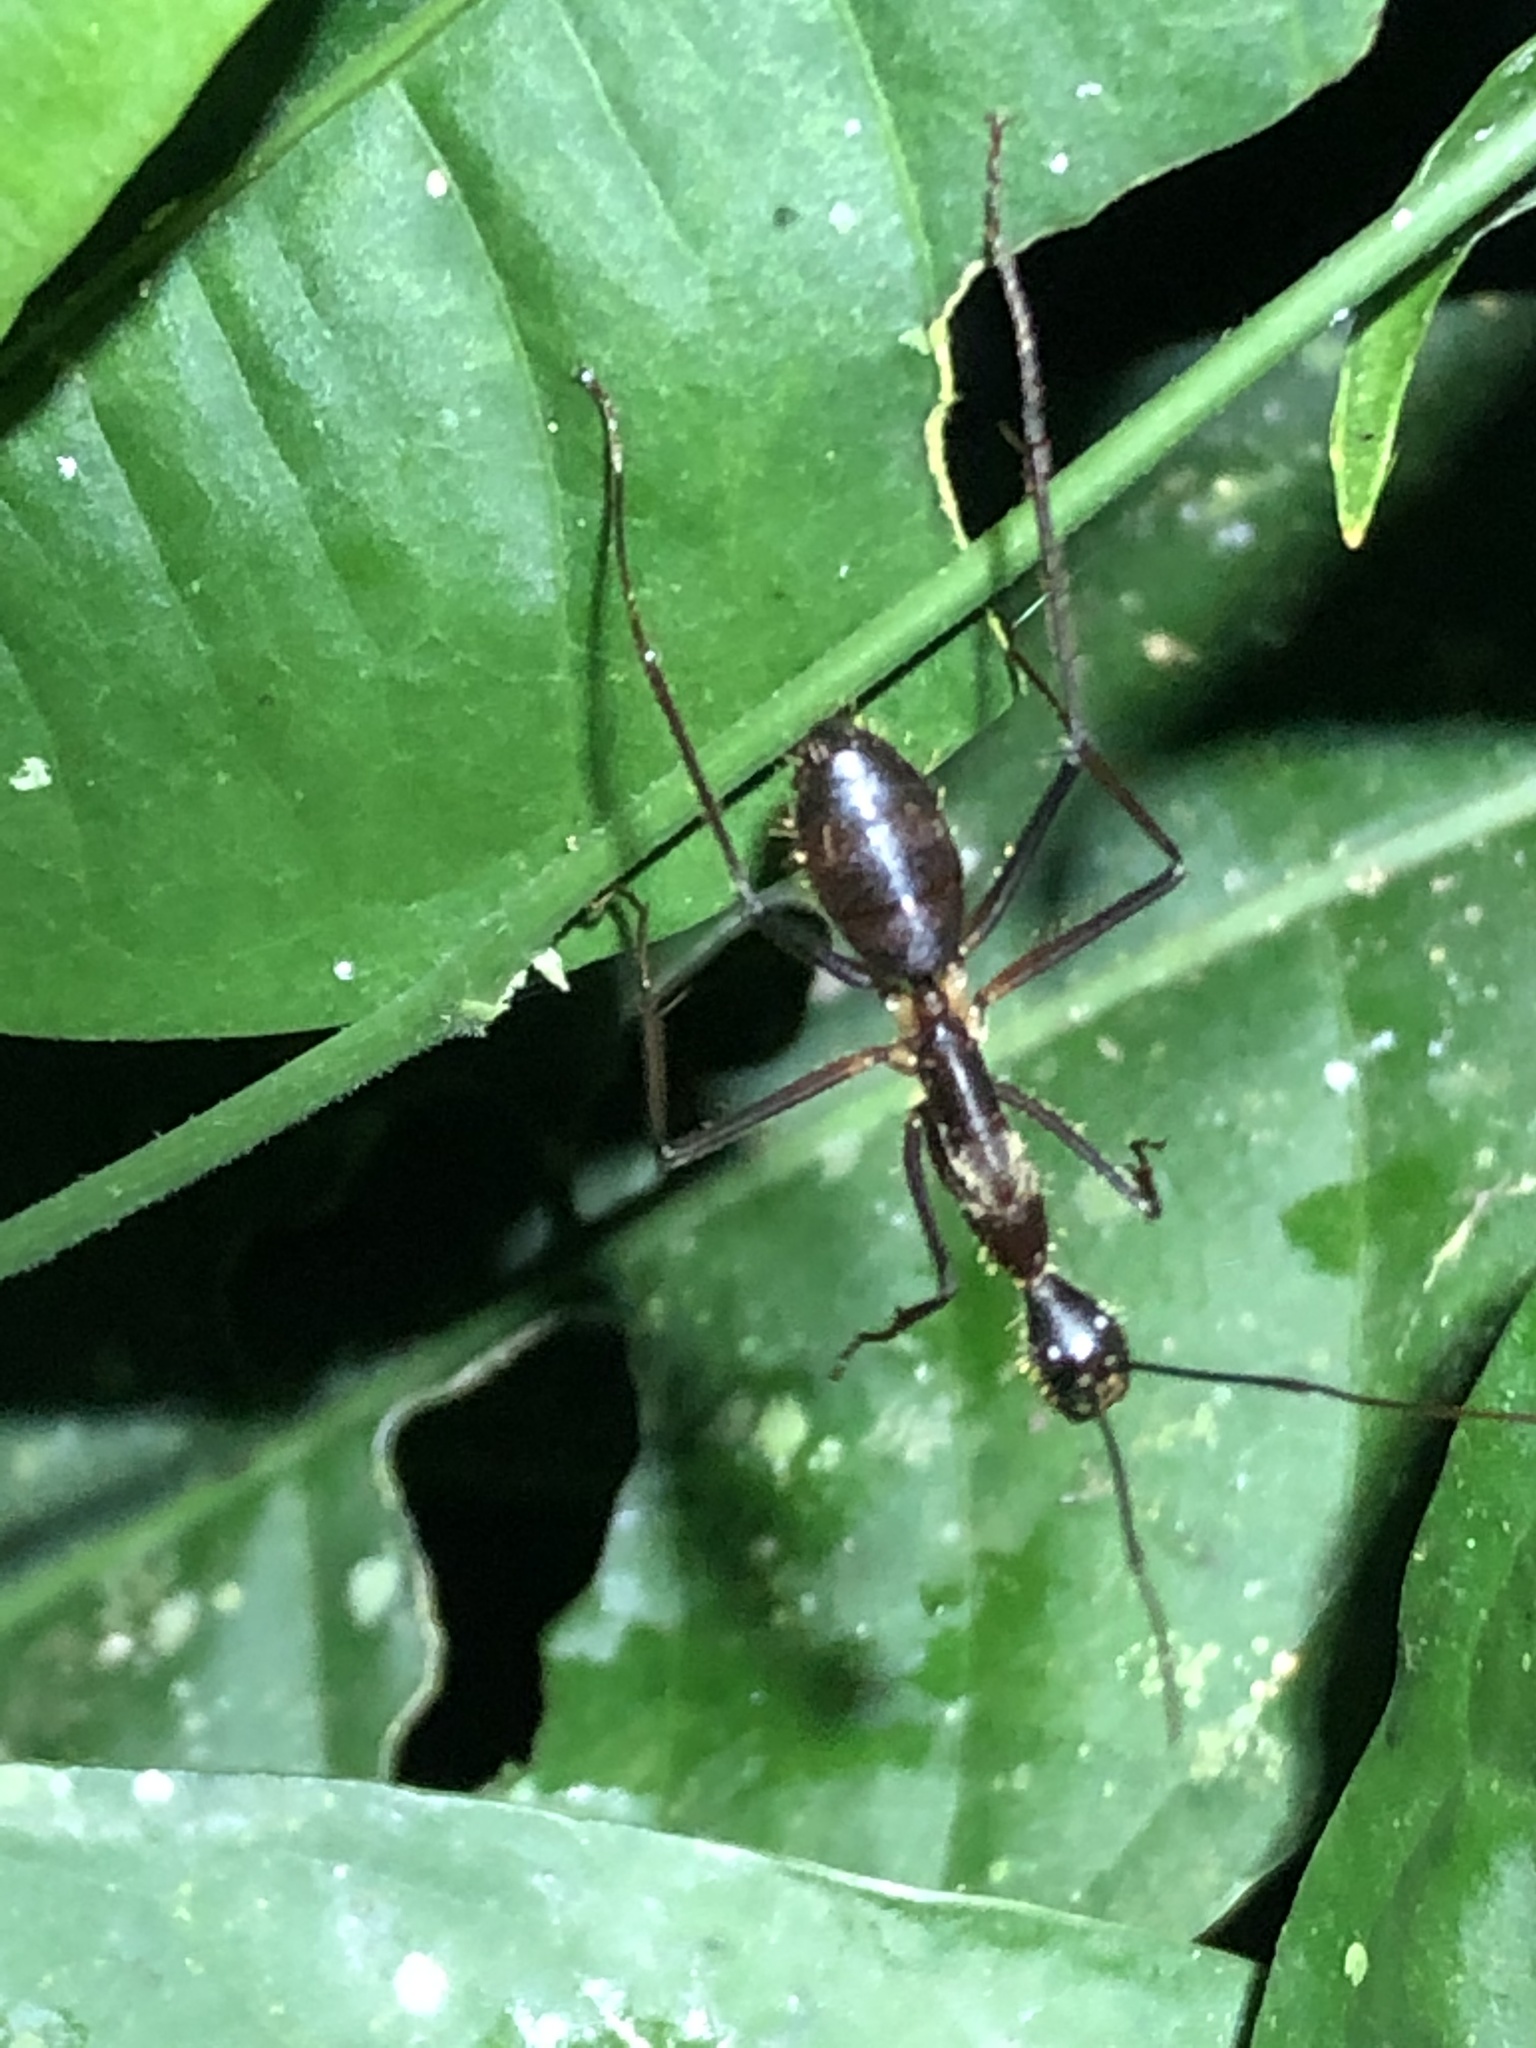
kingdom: Animalia
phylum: Arthropoda
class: Insecta
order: Hymenoptera
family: Formicidae
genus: Camponotus
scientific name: Camponotus cacicus
